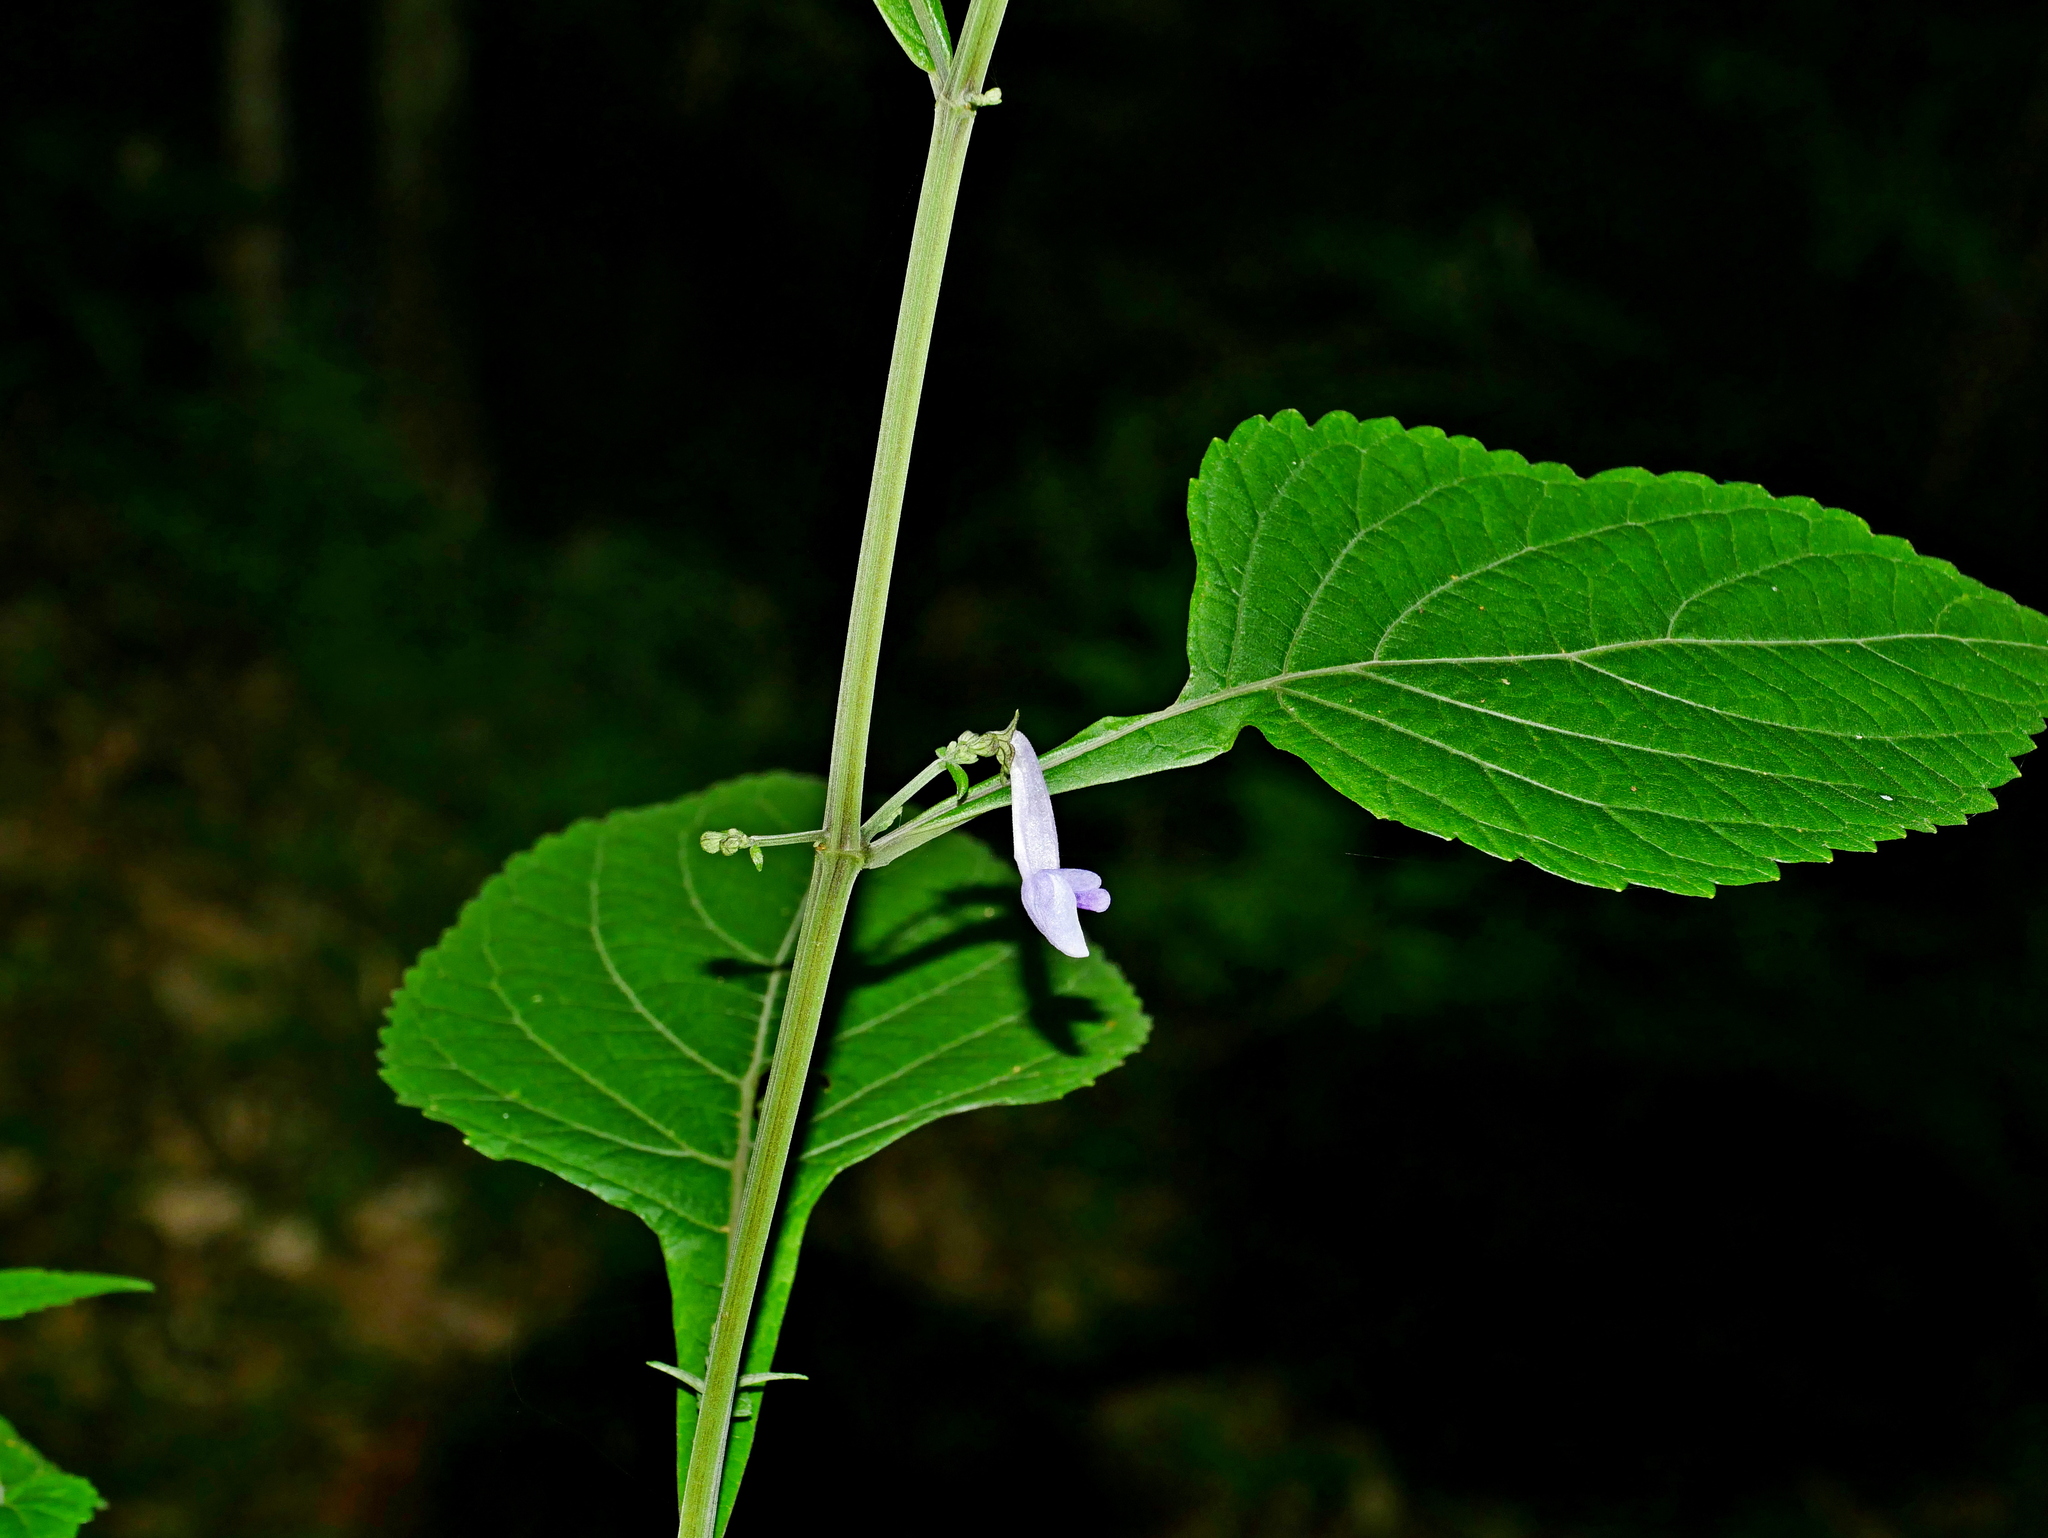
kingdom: Plantae
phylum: Tracheophyta
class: Magnoliopsida
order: Lamiales
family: Lamiaceae
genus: Isodon
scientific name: Isodon macrocalyx
